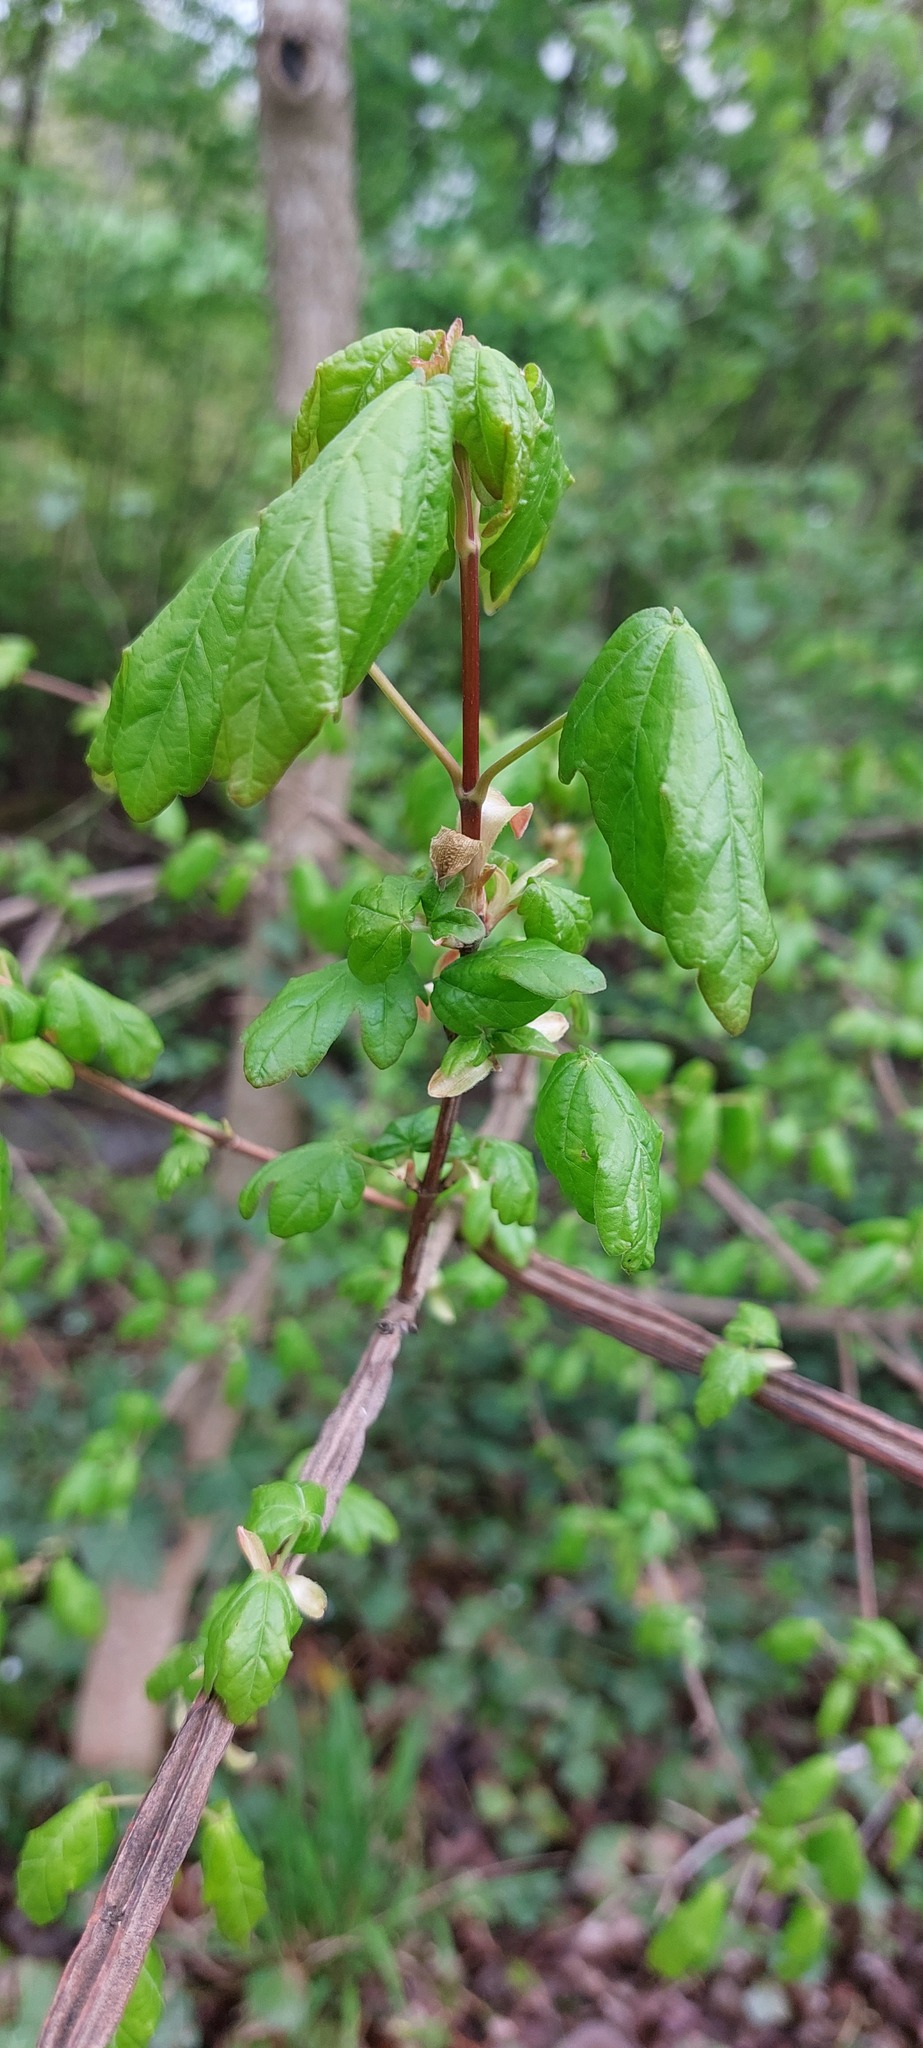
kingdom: Plantae
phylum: Tracheophyta
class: Magnoliopsida
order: Sapindales
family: Sapindaceae
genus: Acer
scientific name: Acer campestre
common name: Field maple
